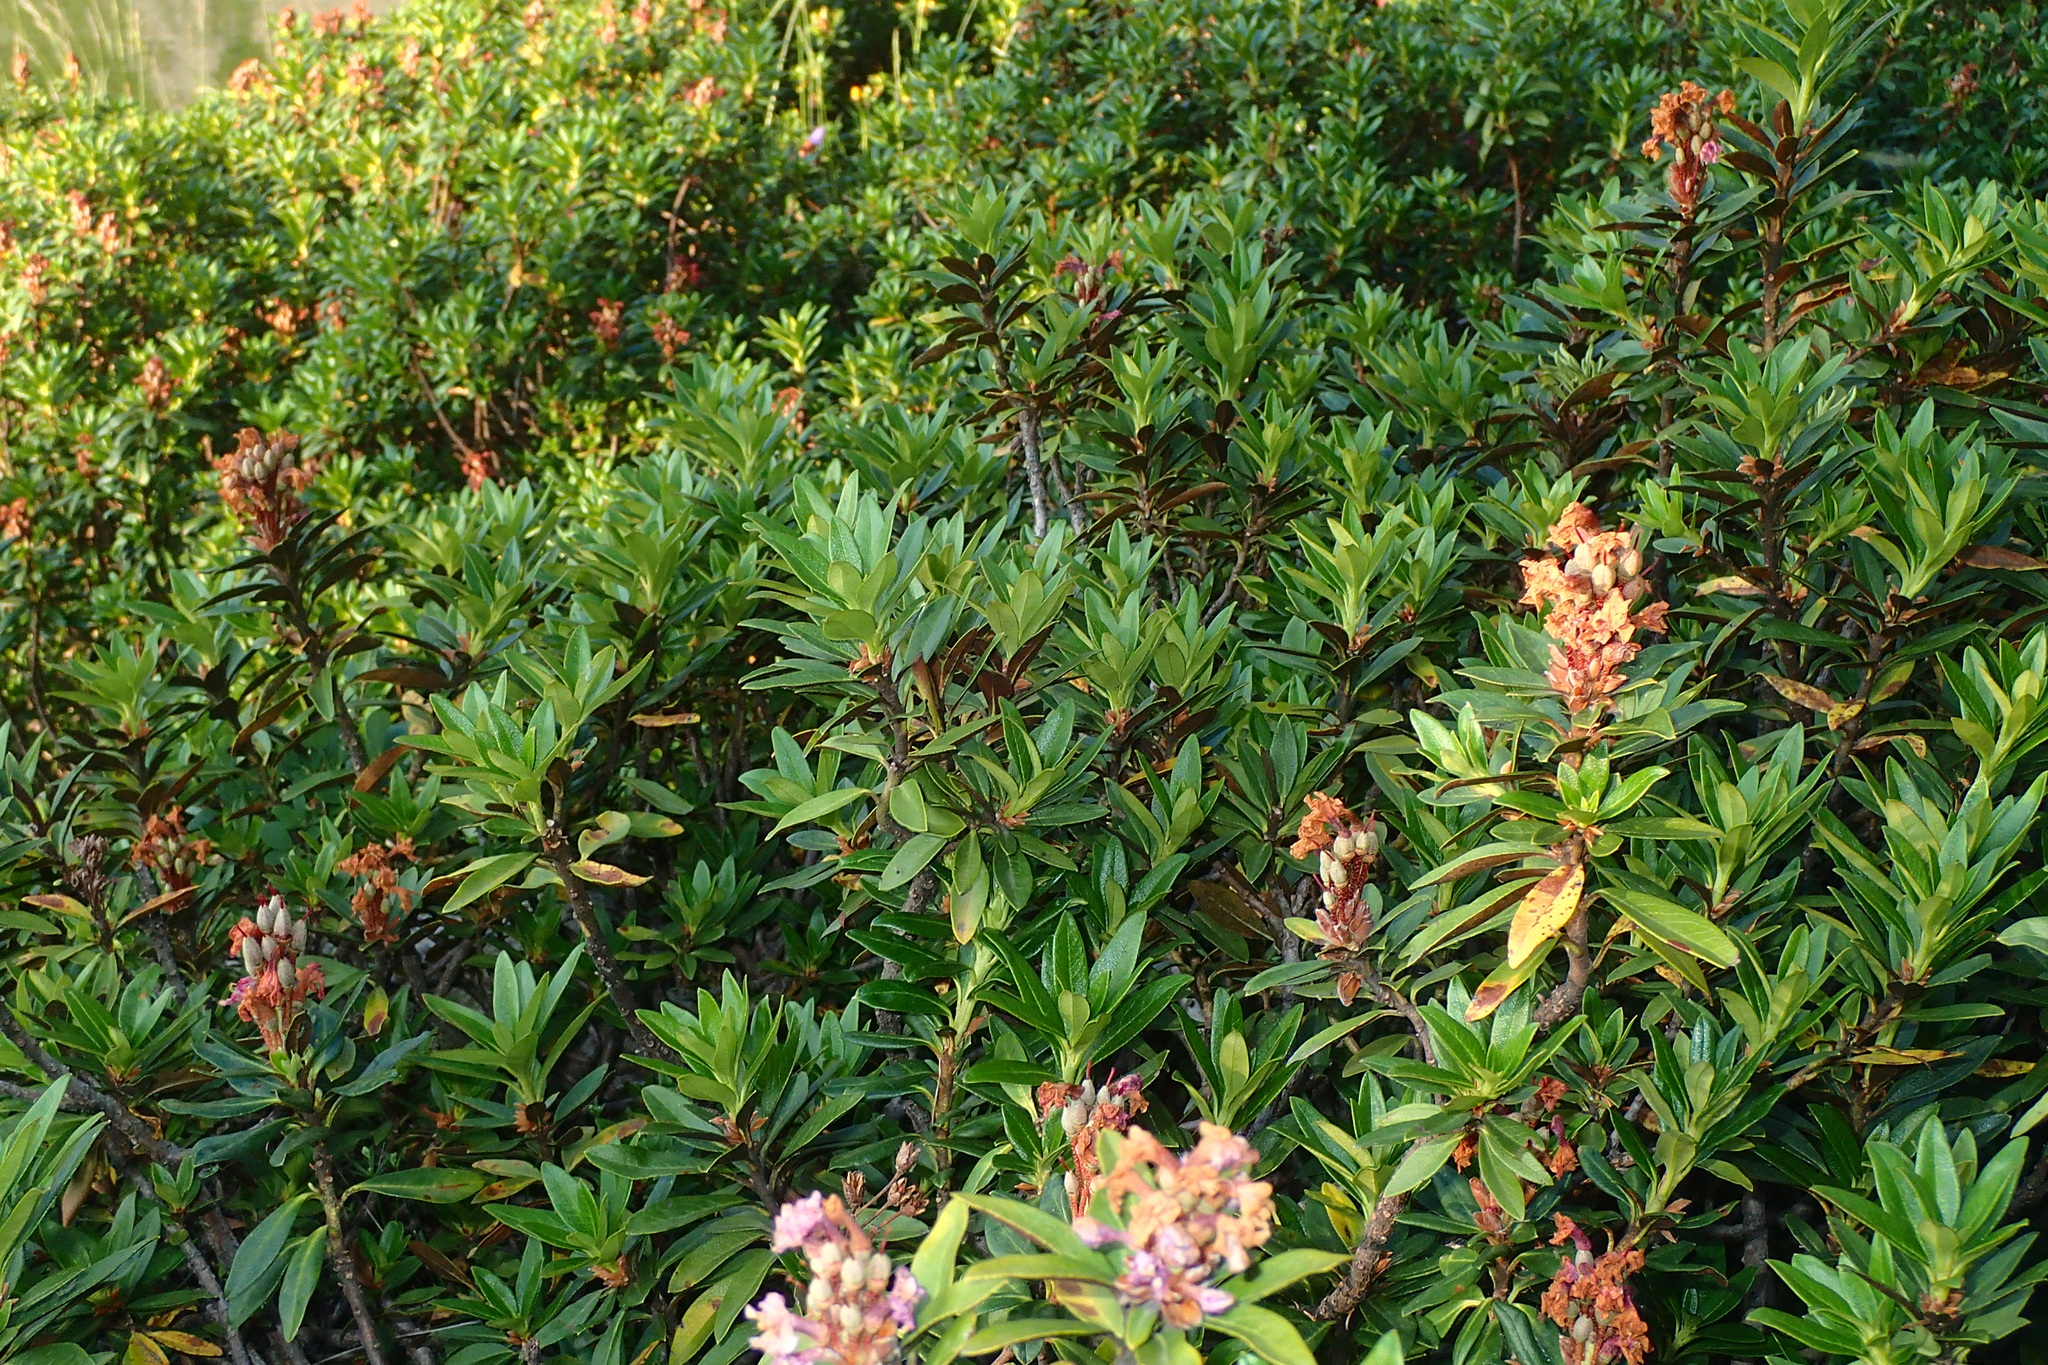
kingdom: Plantae
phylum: Tracheophyta
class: Magnoliopsida
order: Ericales
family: Ericaceae
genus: Rhododendron
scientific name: Rhododendron ferrugineum
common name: Alpenrose
